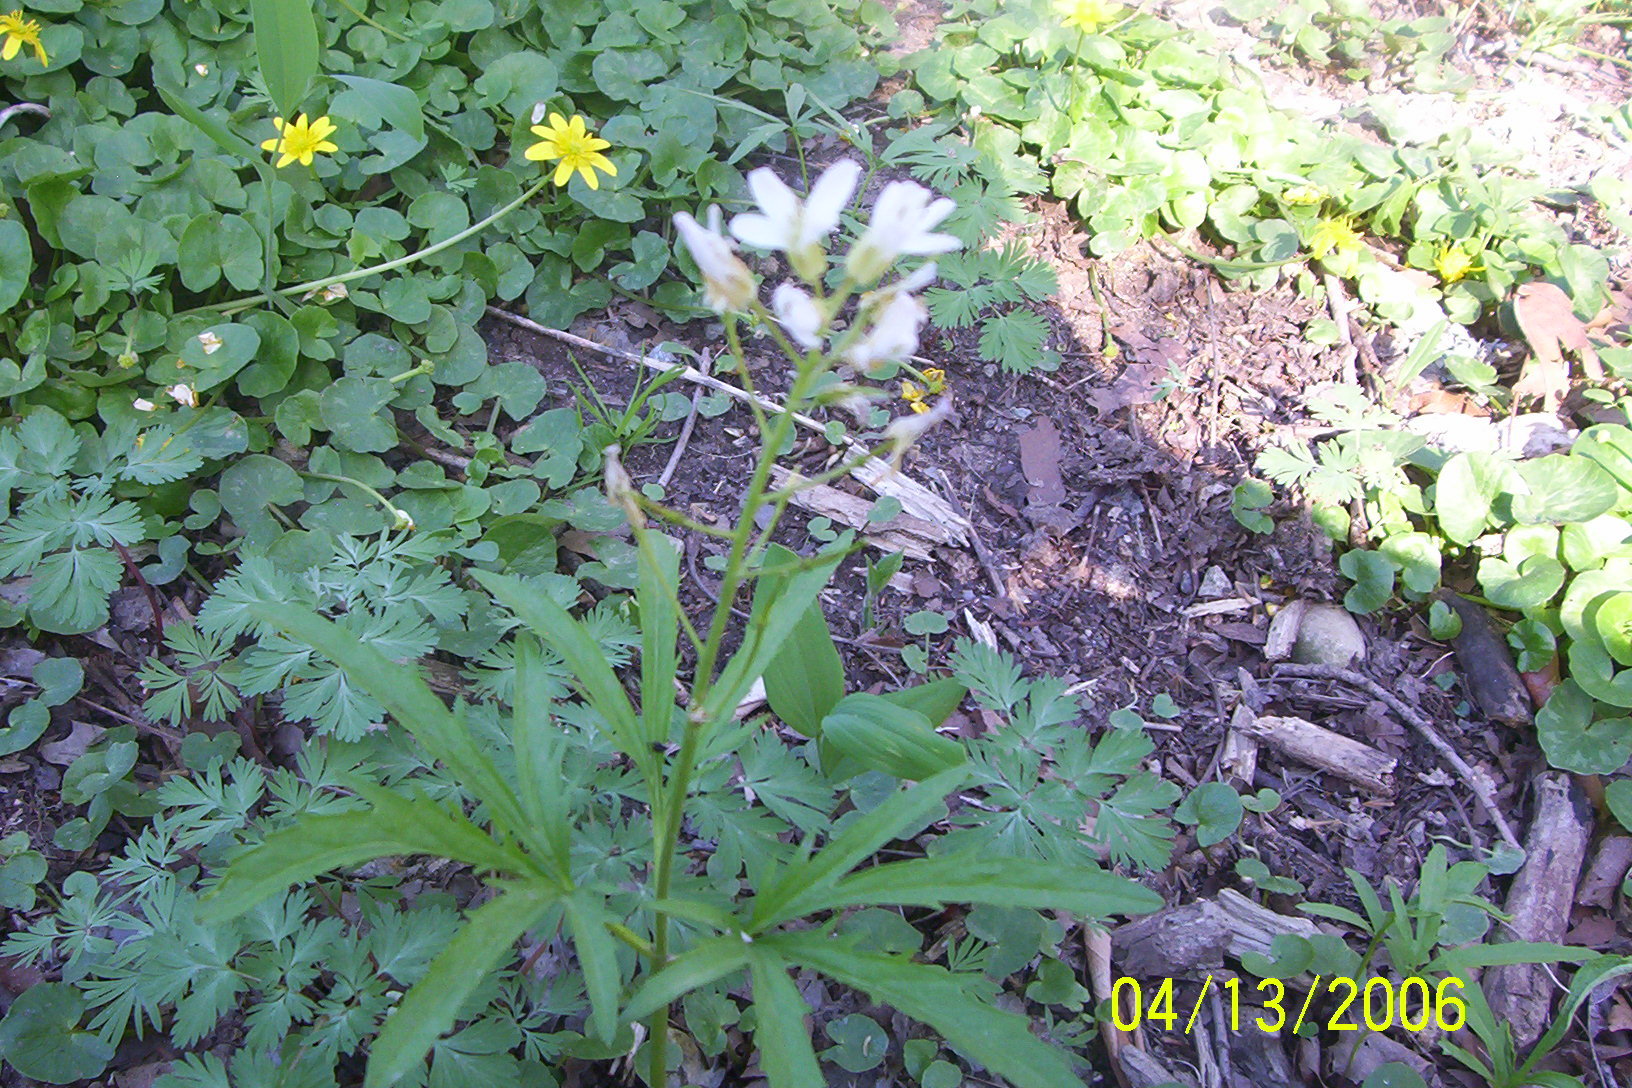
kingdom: Plantae
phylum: Tracheophyta
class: Magnoliopsida
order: Brassicales
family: Brassicaceae
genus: Cardamine
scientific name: Cardamine concatenata
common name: Cut-leaf toothcup
